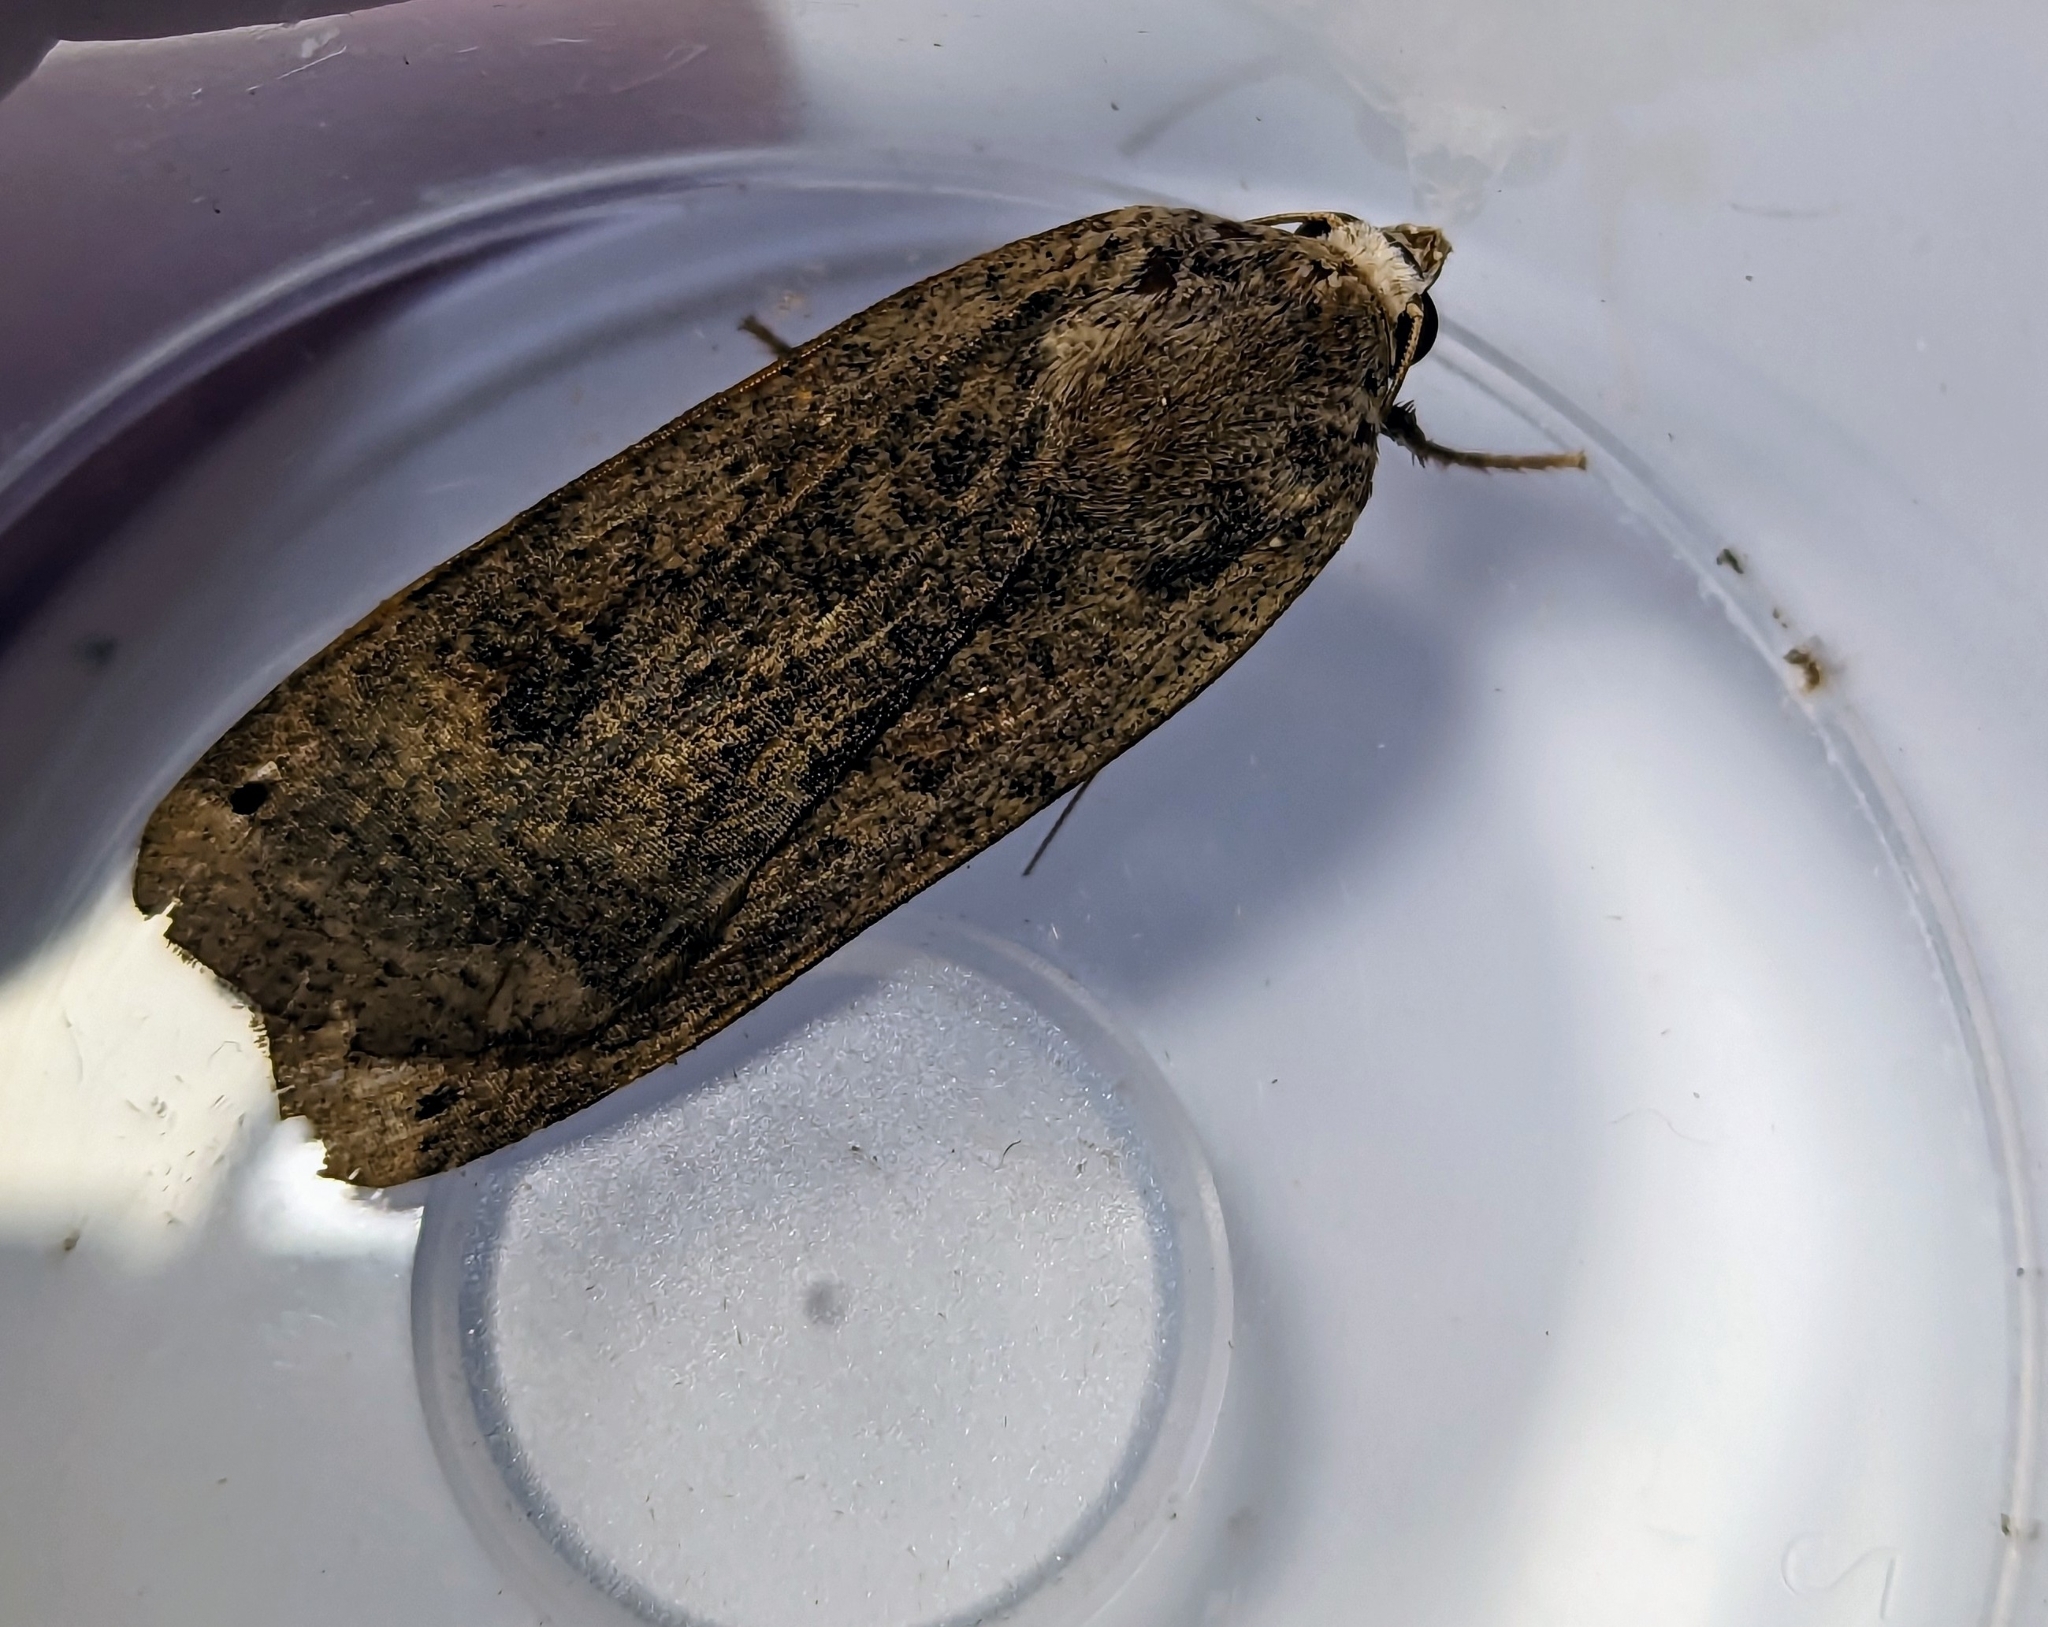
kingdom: Animalia
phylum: Arthropoda
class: Insecta
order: Lepidoptera
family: Noctuidae
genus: Noctua
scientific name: Noctua pronuba
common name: Large yellow underwing
